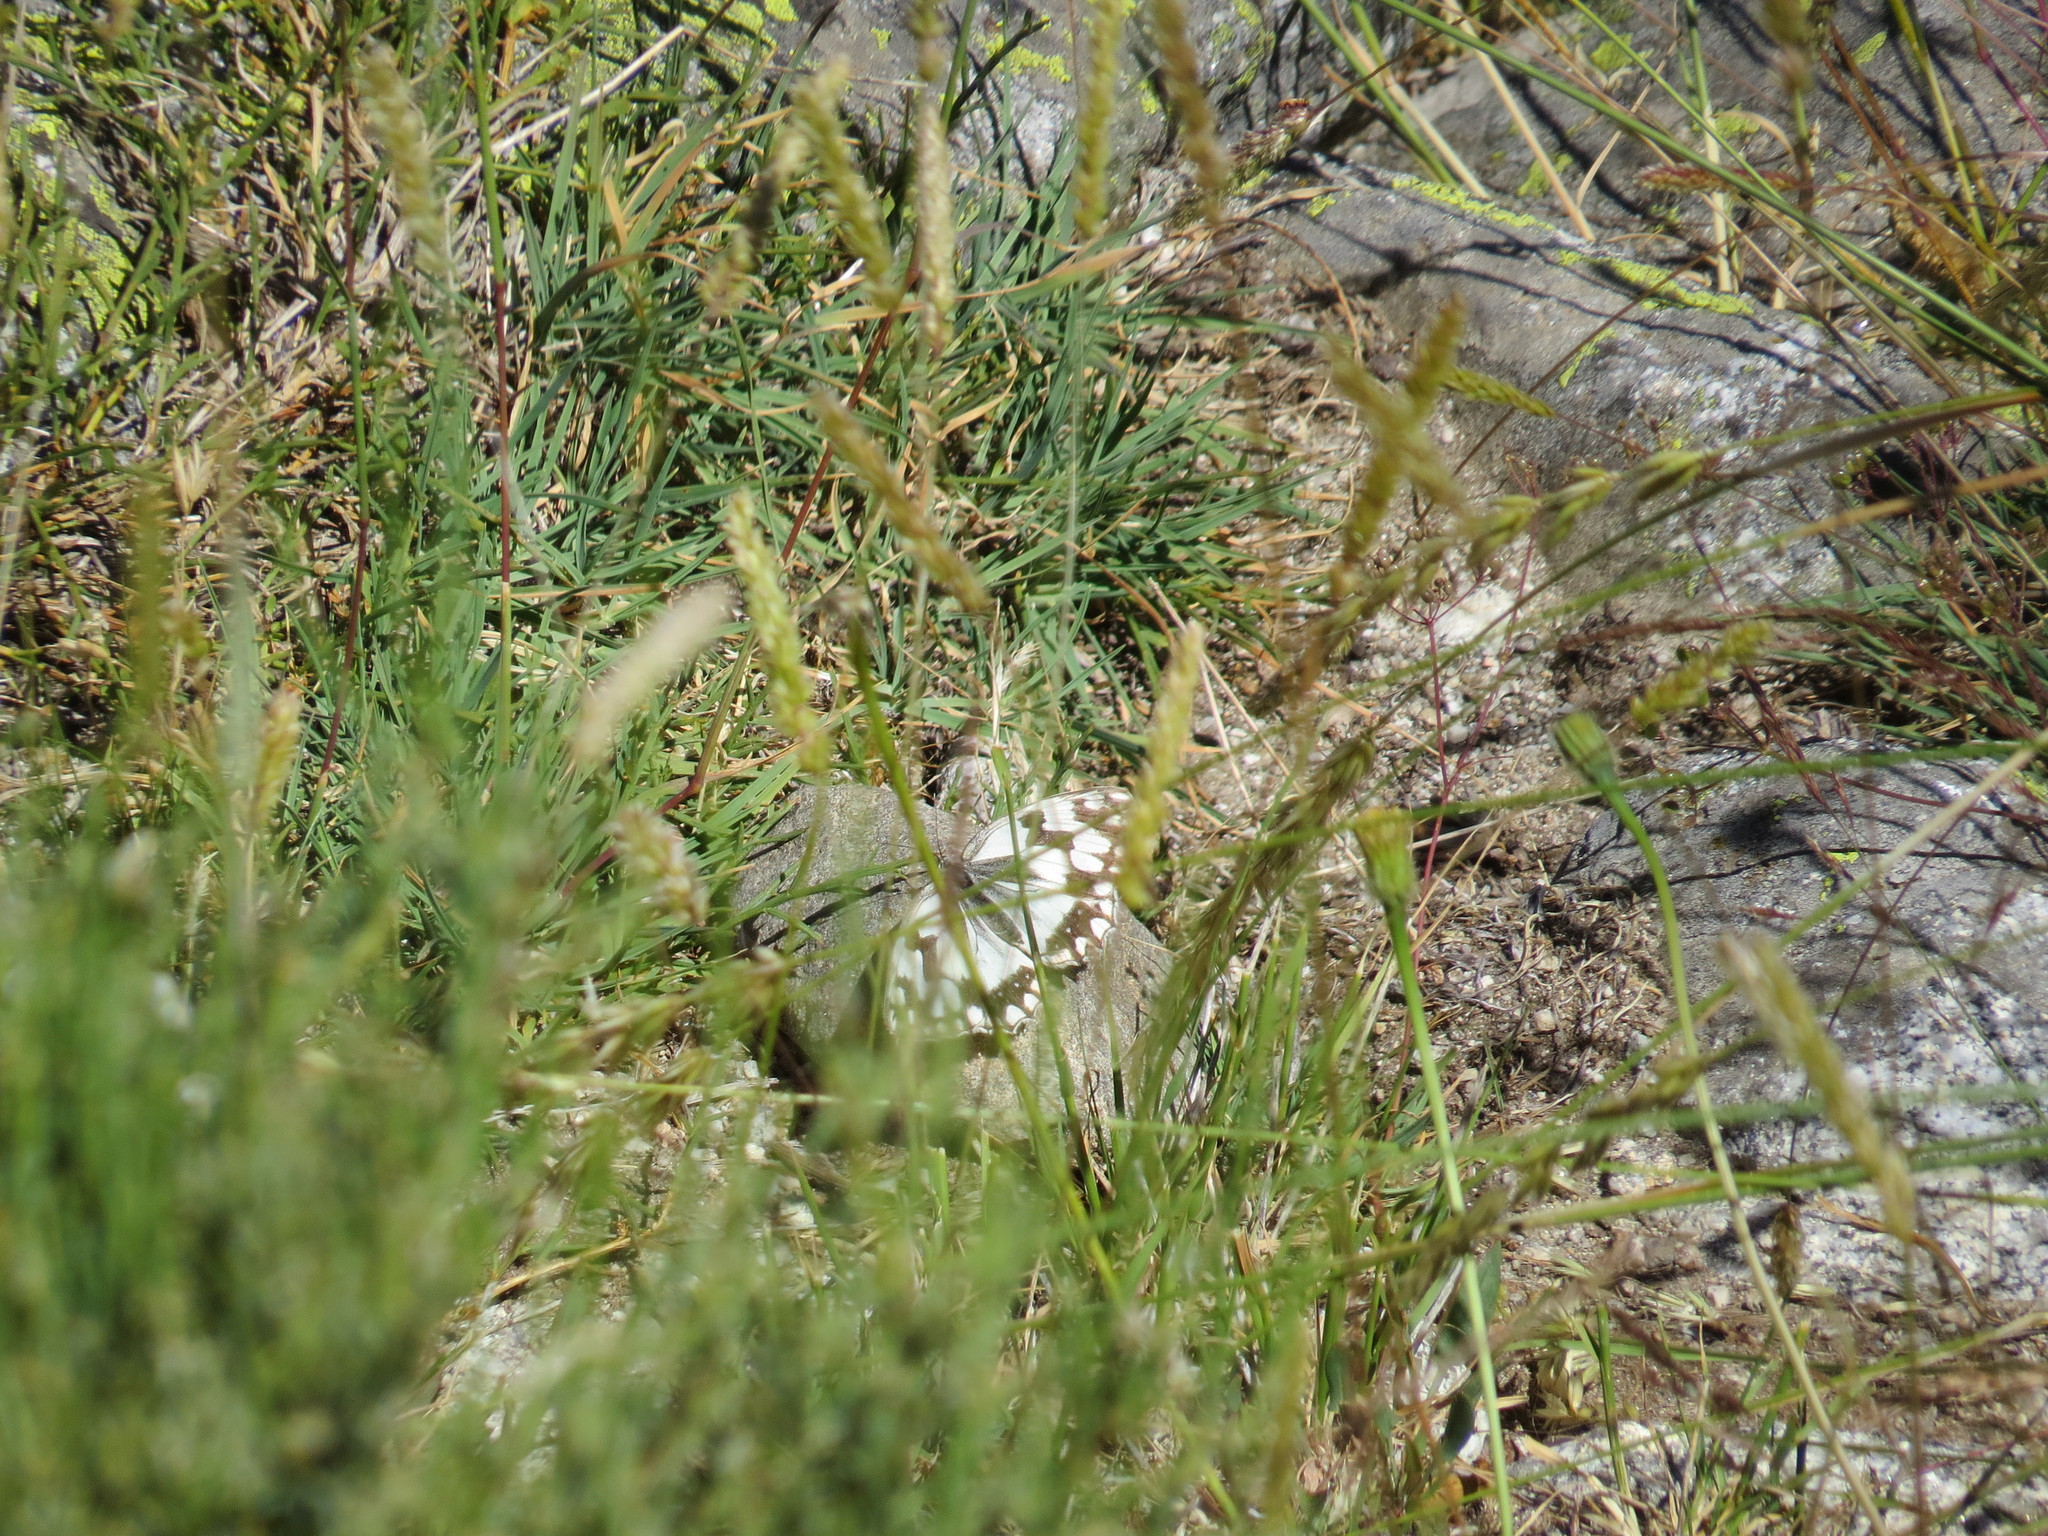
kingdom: Animalia
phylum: Arthropoda
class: Insecta
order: Lepidoptera
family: Nymphalidae
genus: Melanargia
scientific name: Melanargia lachesis
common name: Iberian marbled white
